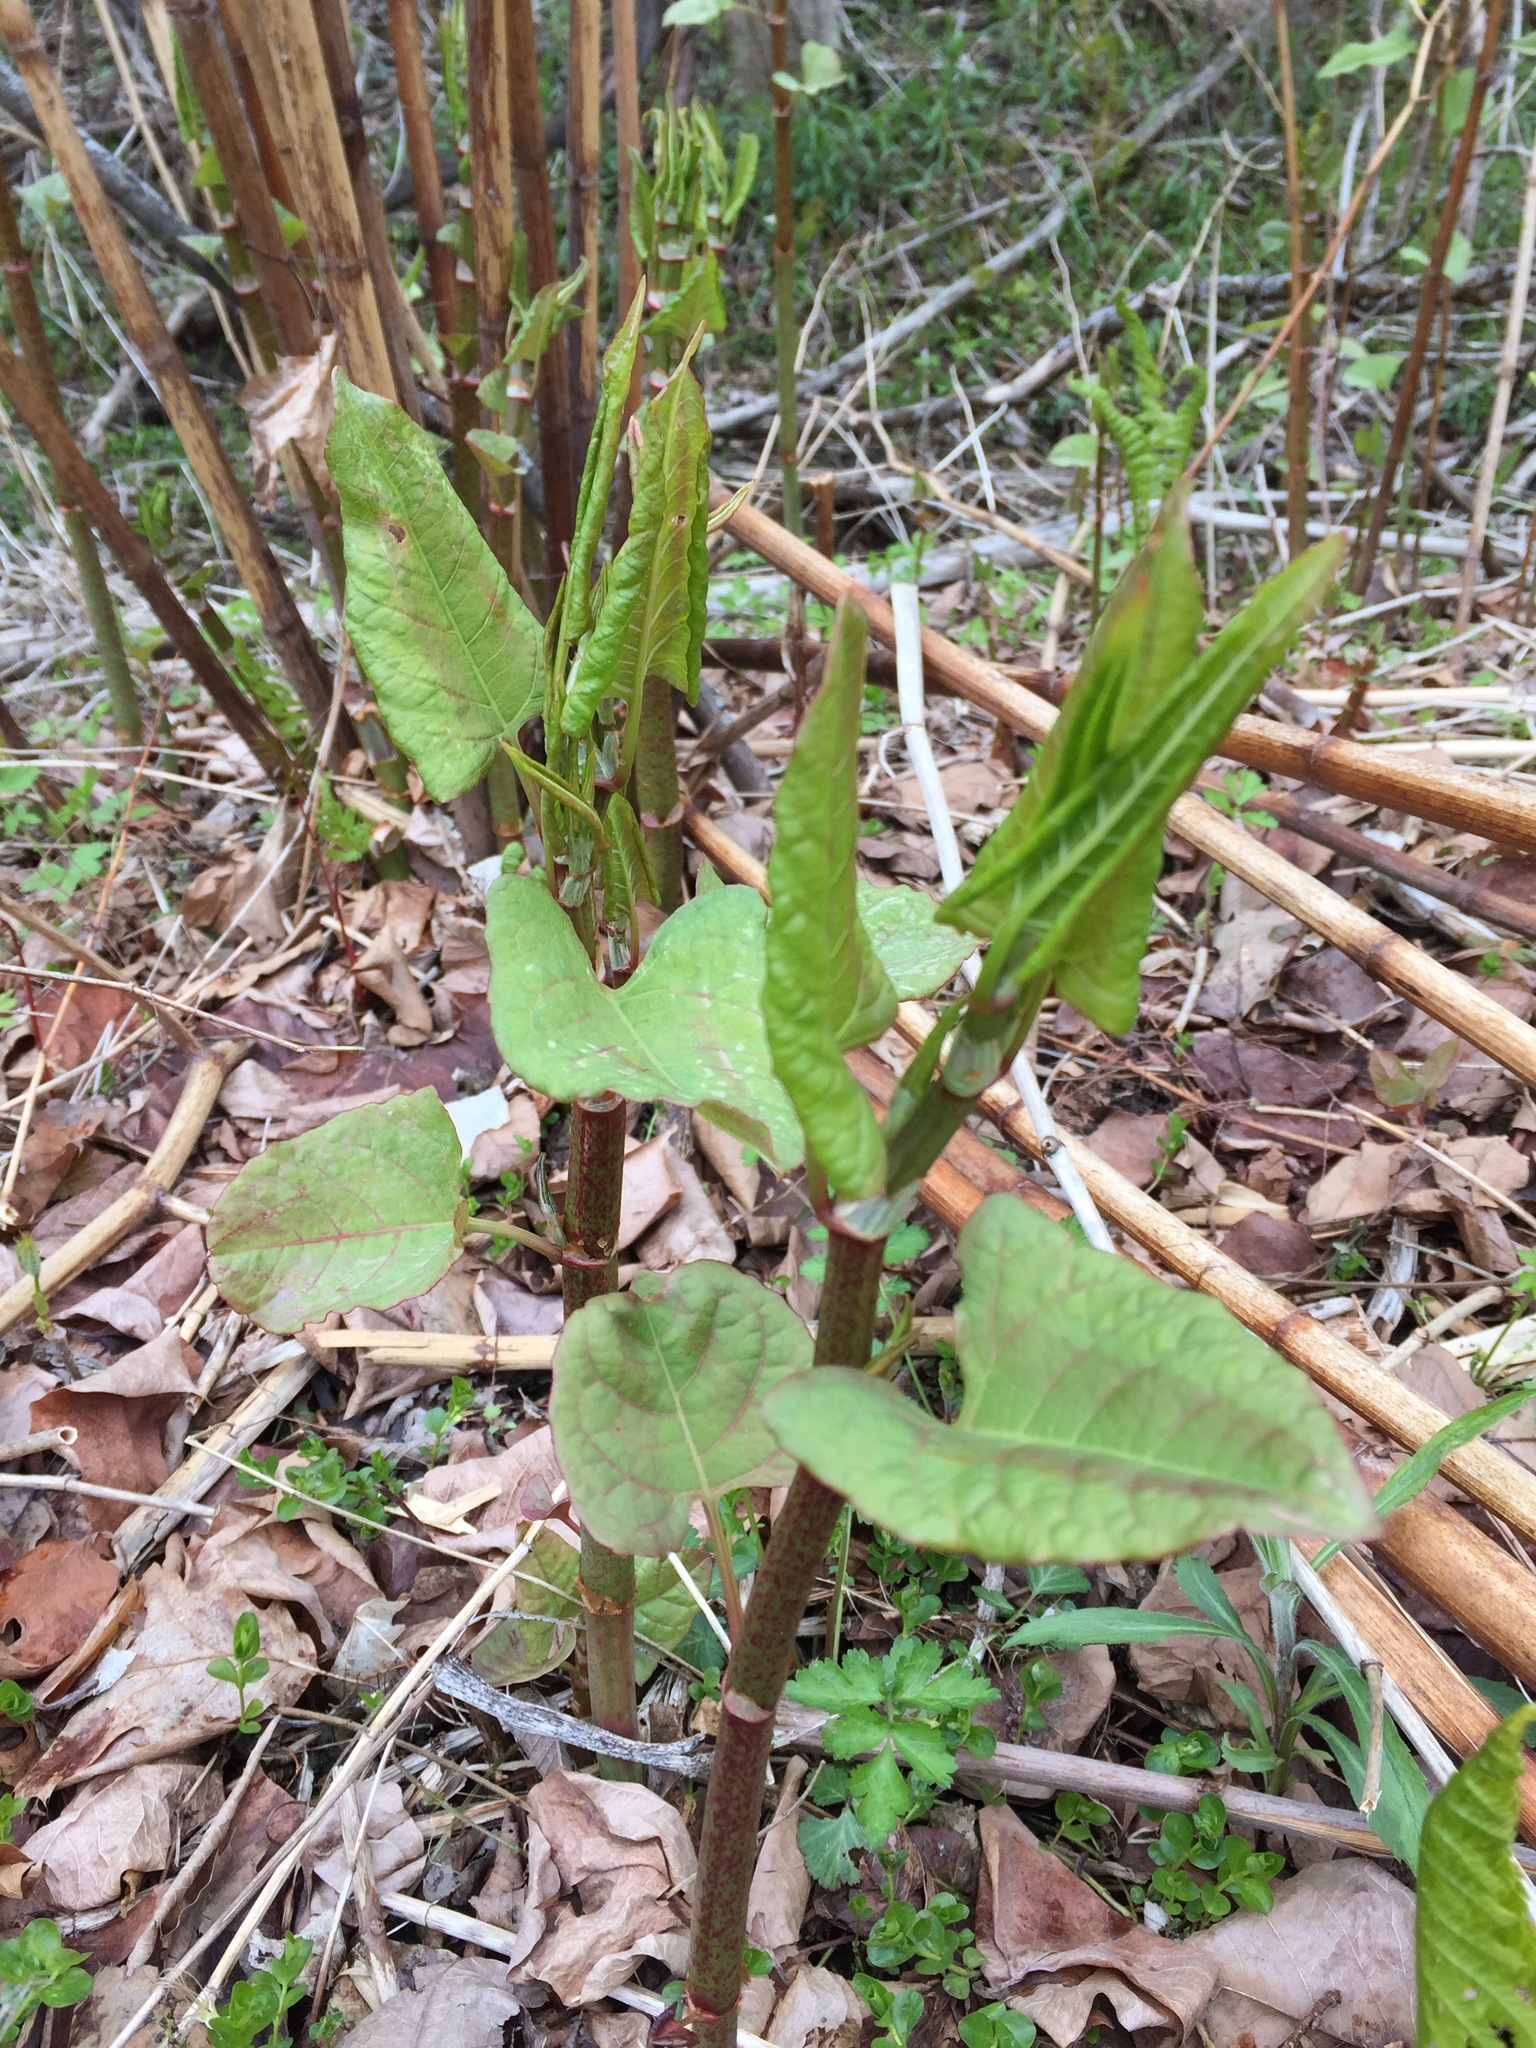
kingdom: Plantae
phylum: Tracheophyta
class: Magnoliopsida
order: Caryophyllales
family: Polygonaceae
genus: Reynoutria
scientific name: Reynoutria japonica
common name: Japanese knotweed
